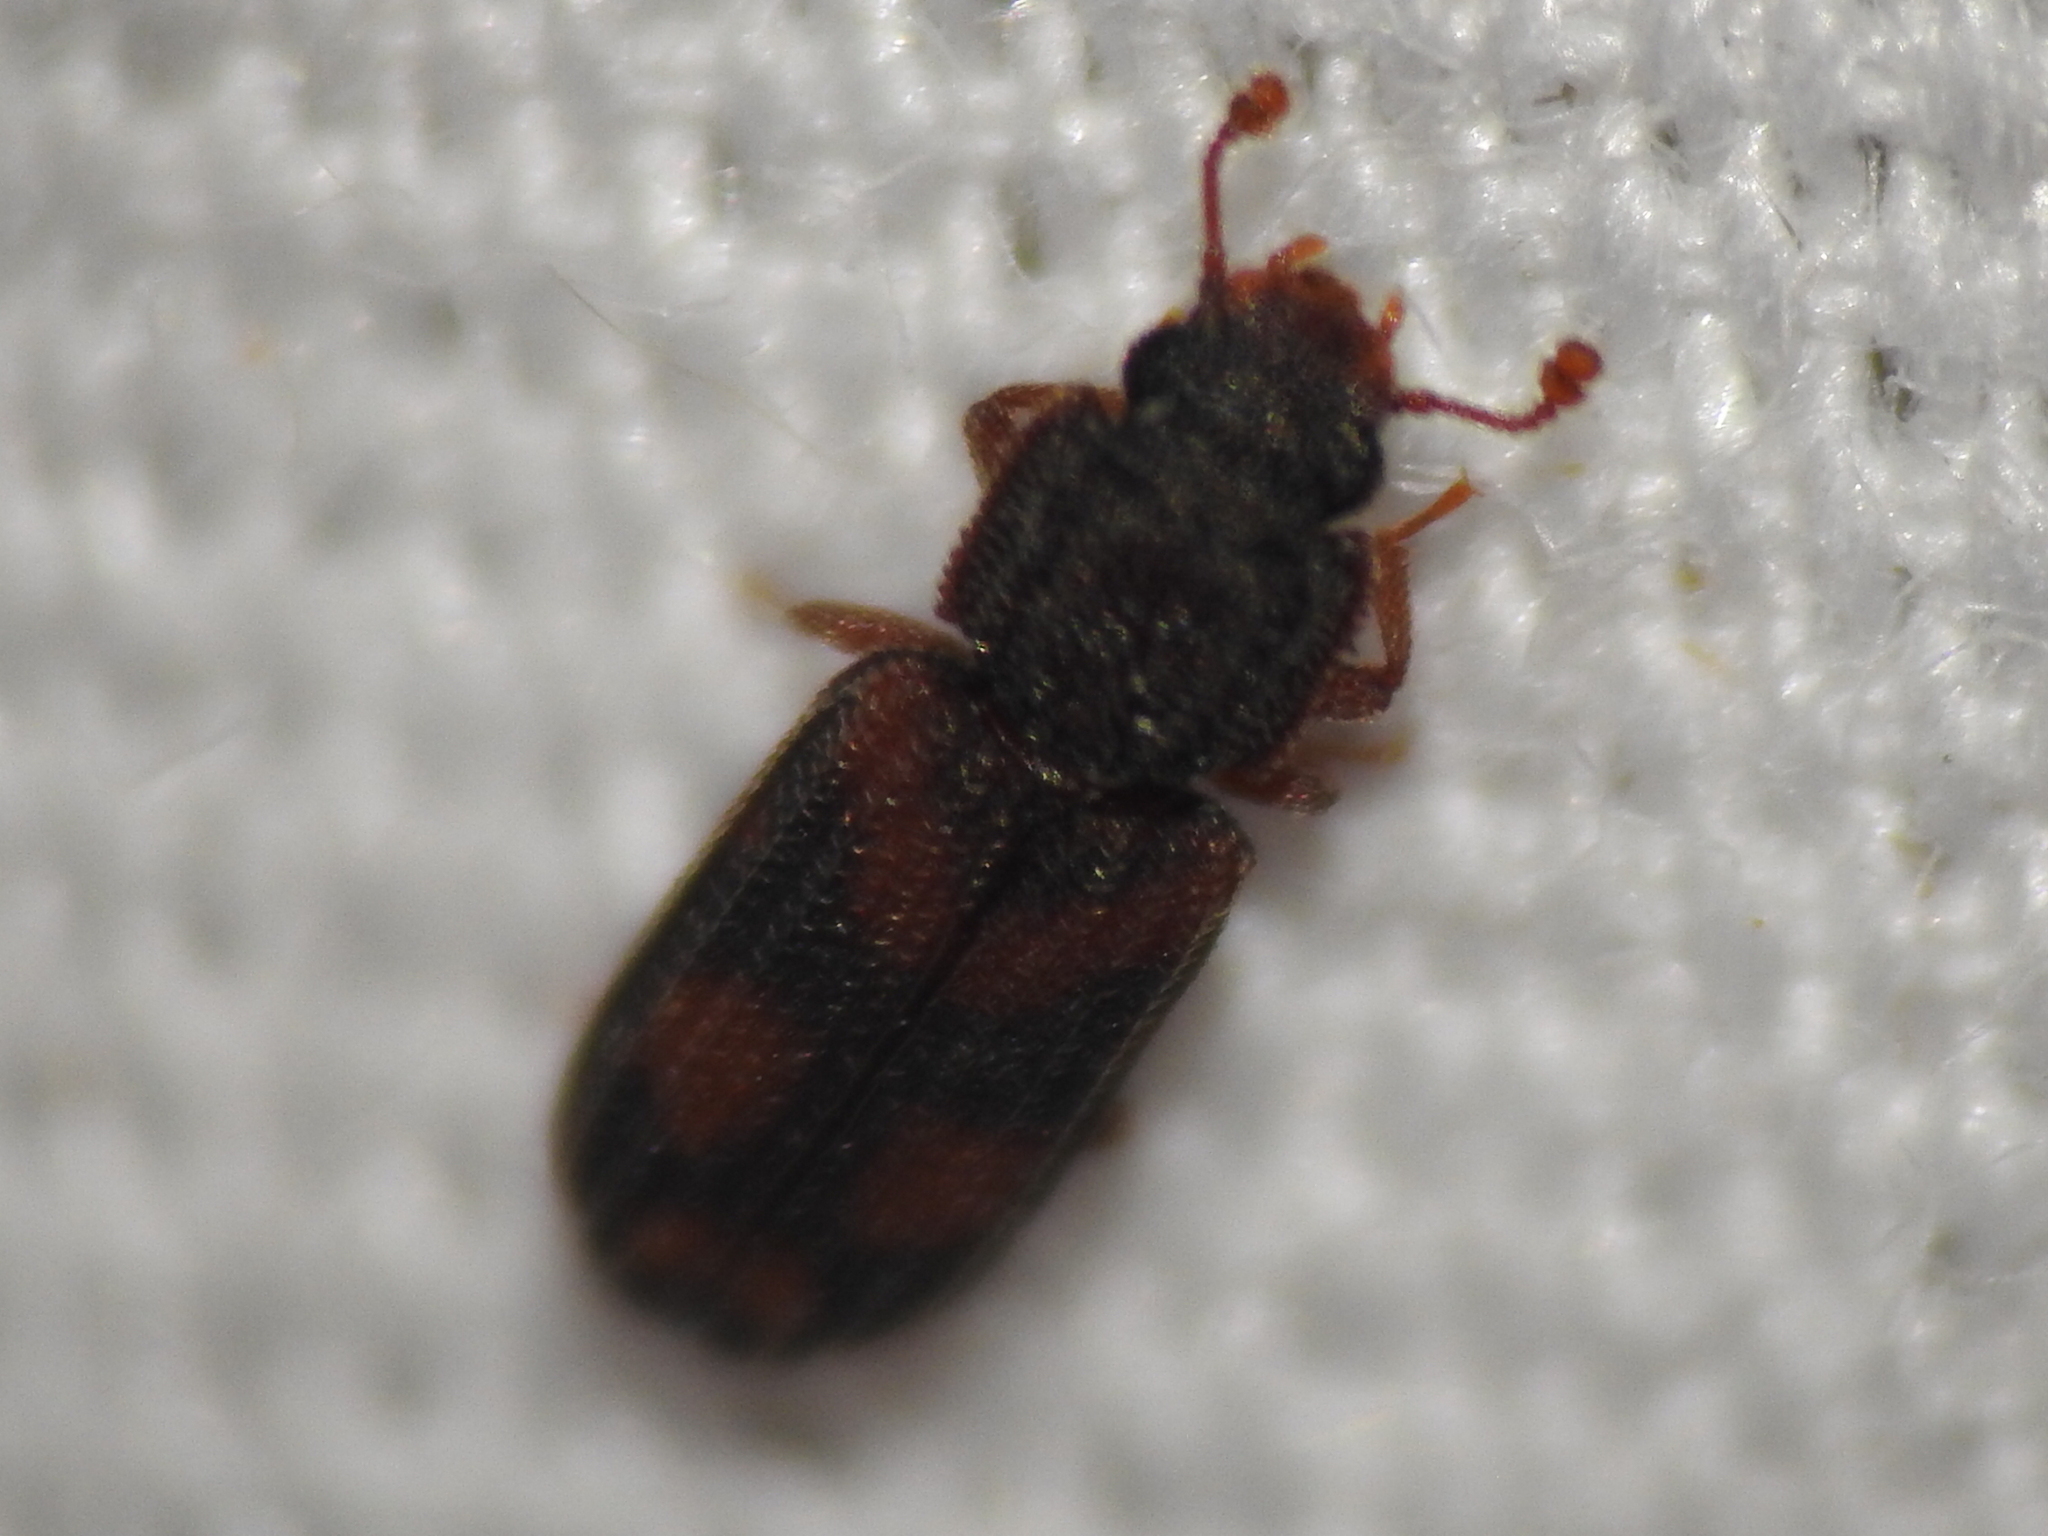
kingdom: Animalia
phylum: Arthropoda
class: Insecta
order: Coleoptera
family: Zopheridae
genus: Bitoma
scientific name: Bitoma quadriguttata
